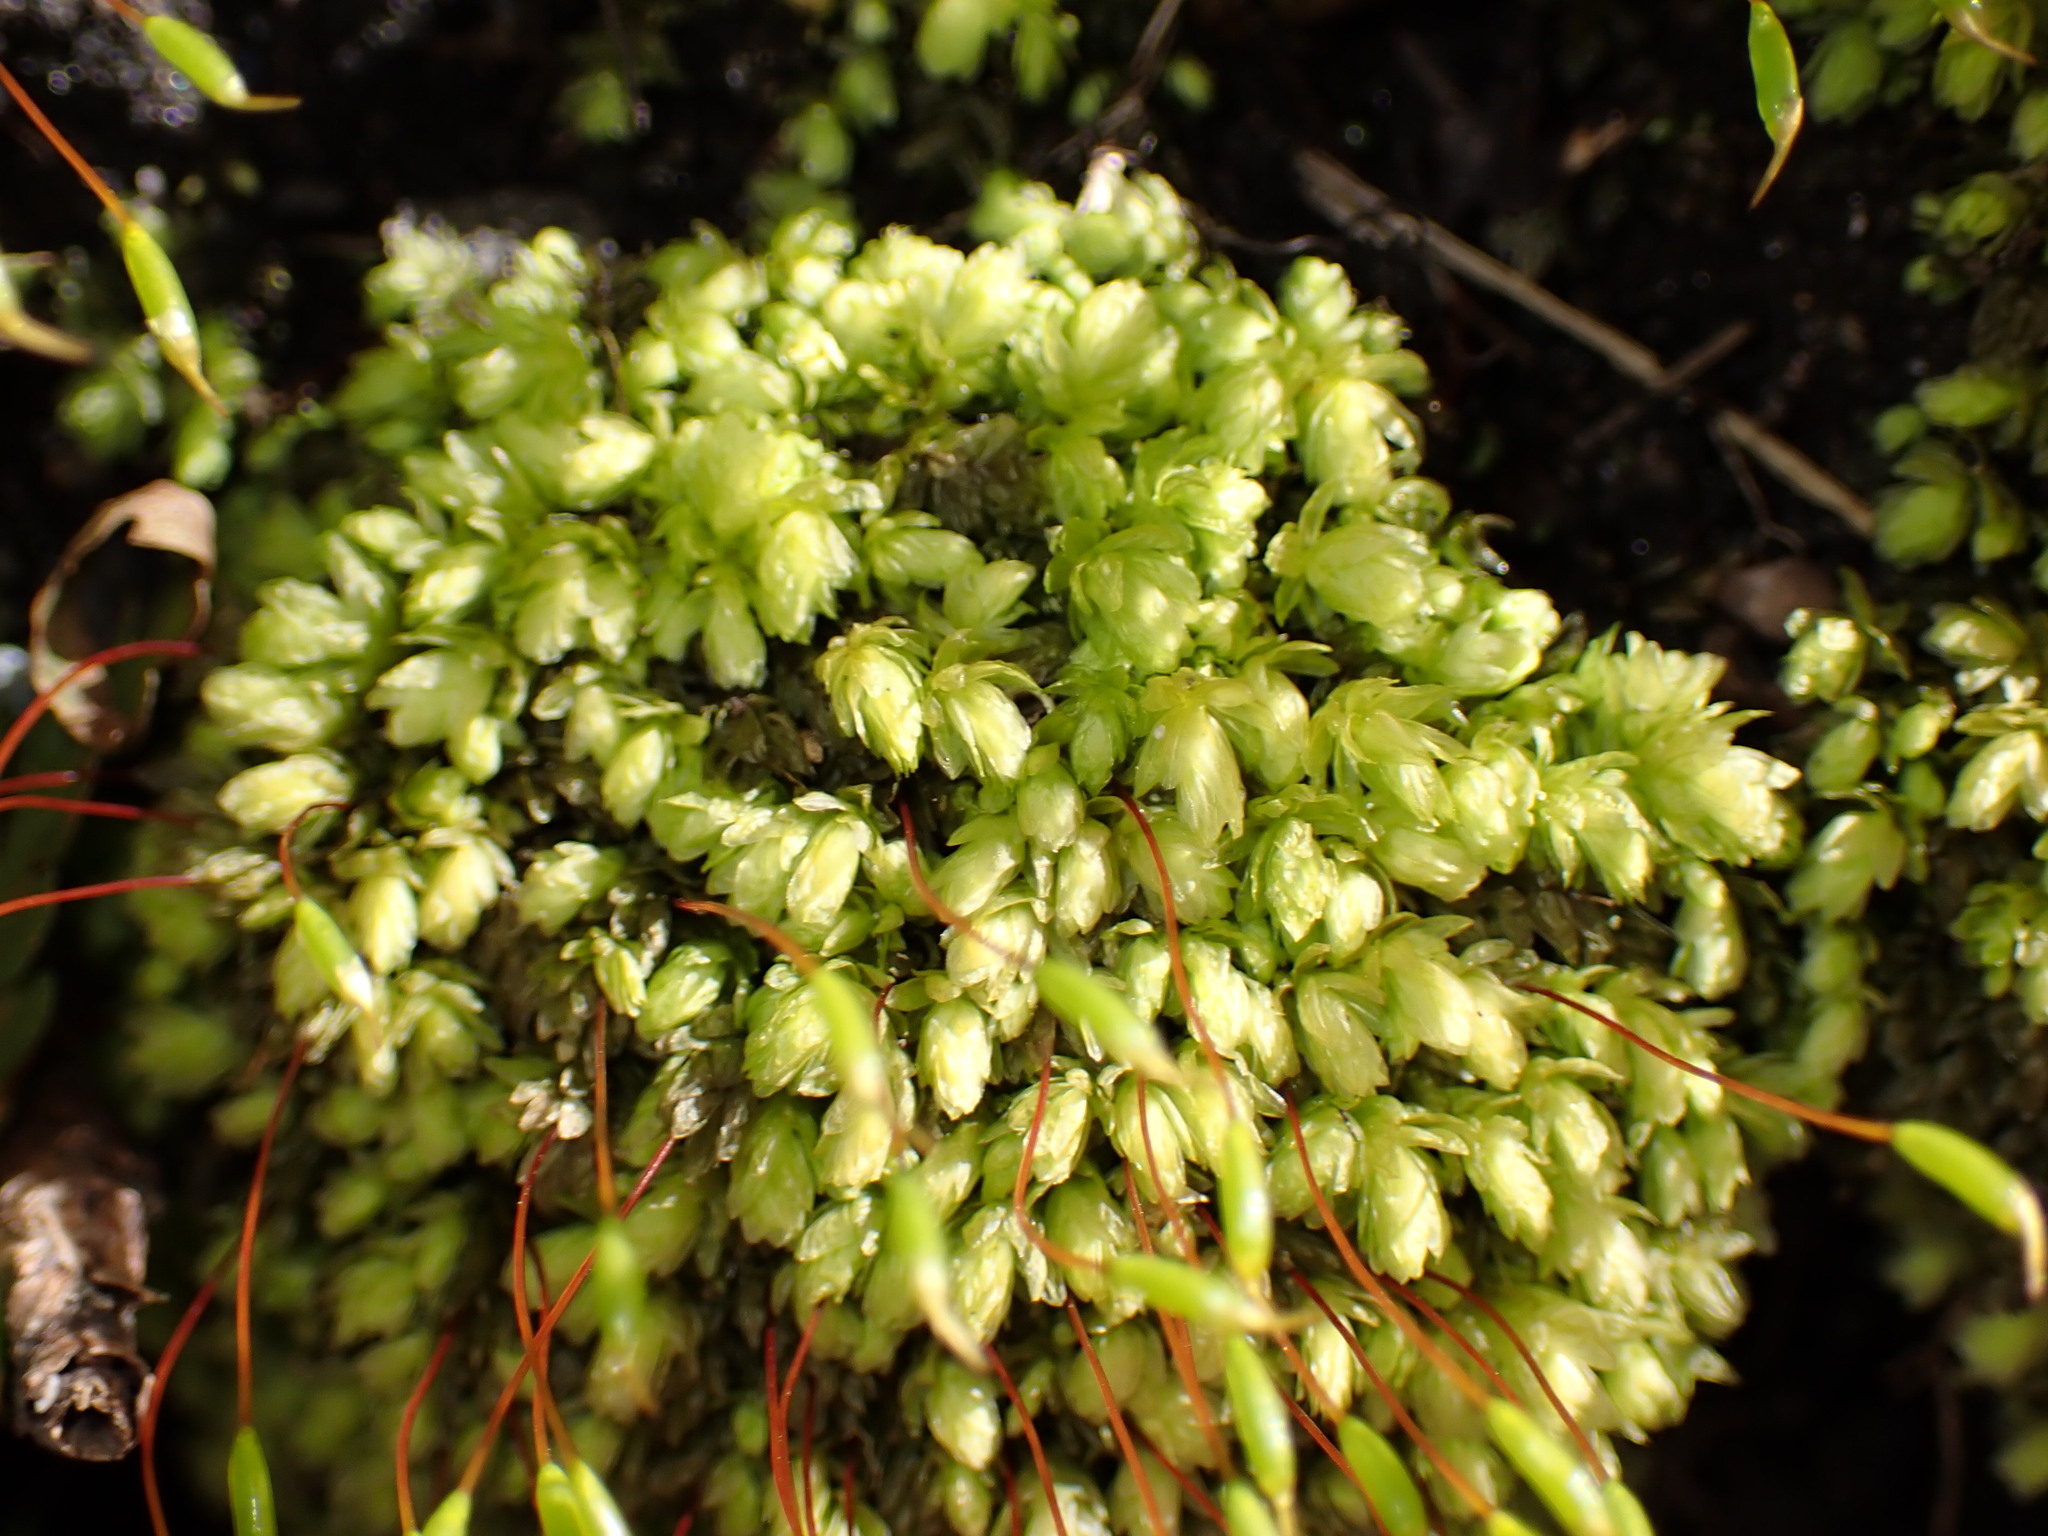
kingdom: Plantae
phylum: Bryophyta
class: Bryopsida
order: Aulacomniales
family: Aulacomniaceae
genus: Aulacomnium
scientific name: Aulacomnium heterostichum
